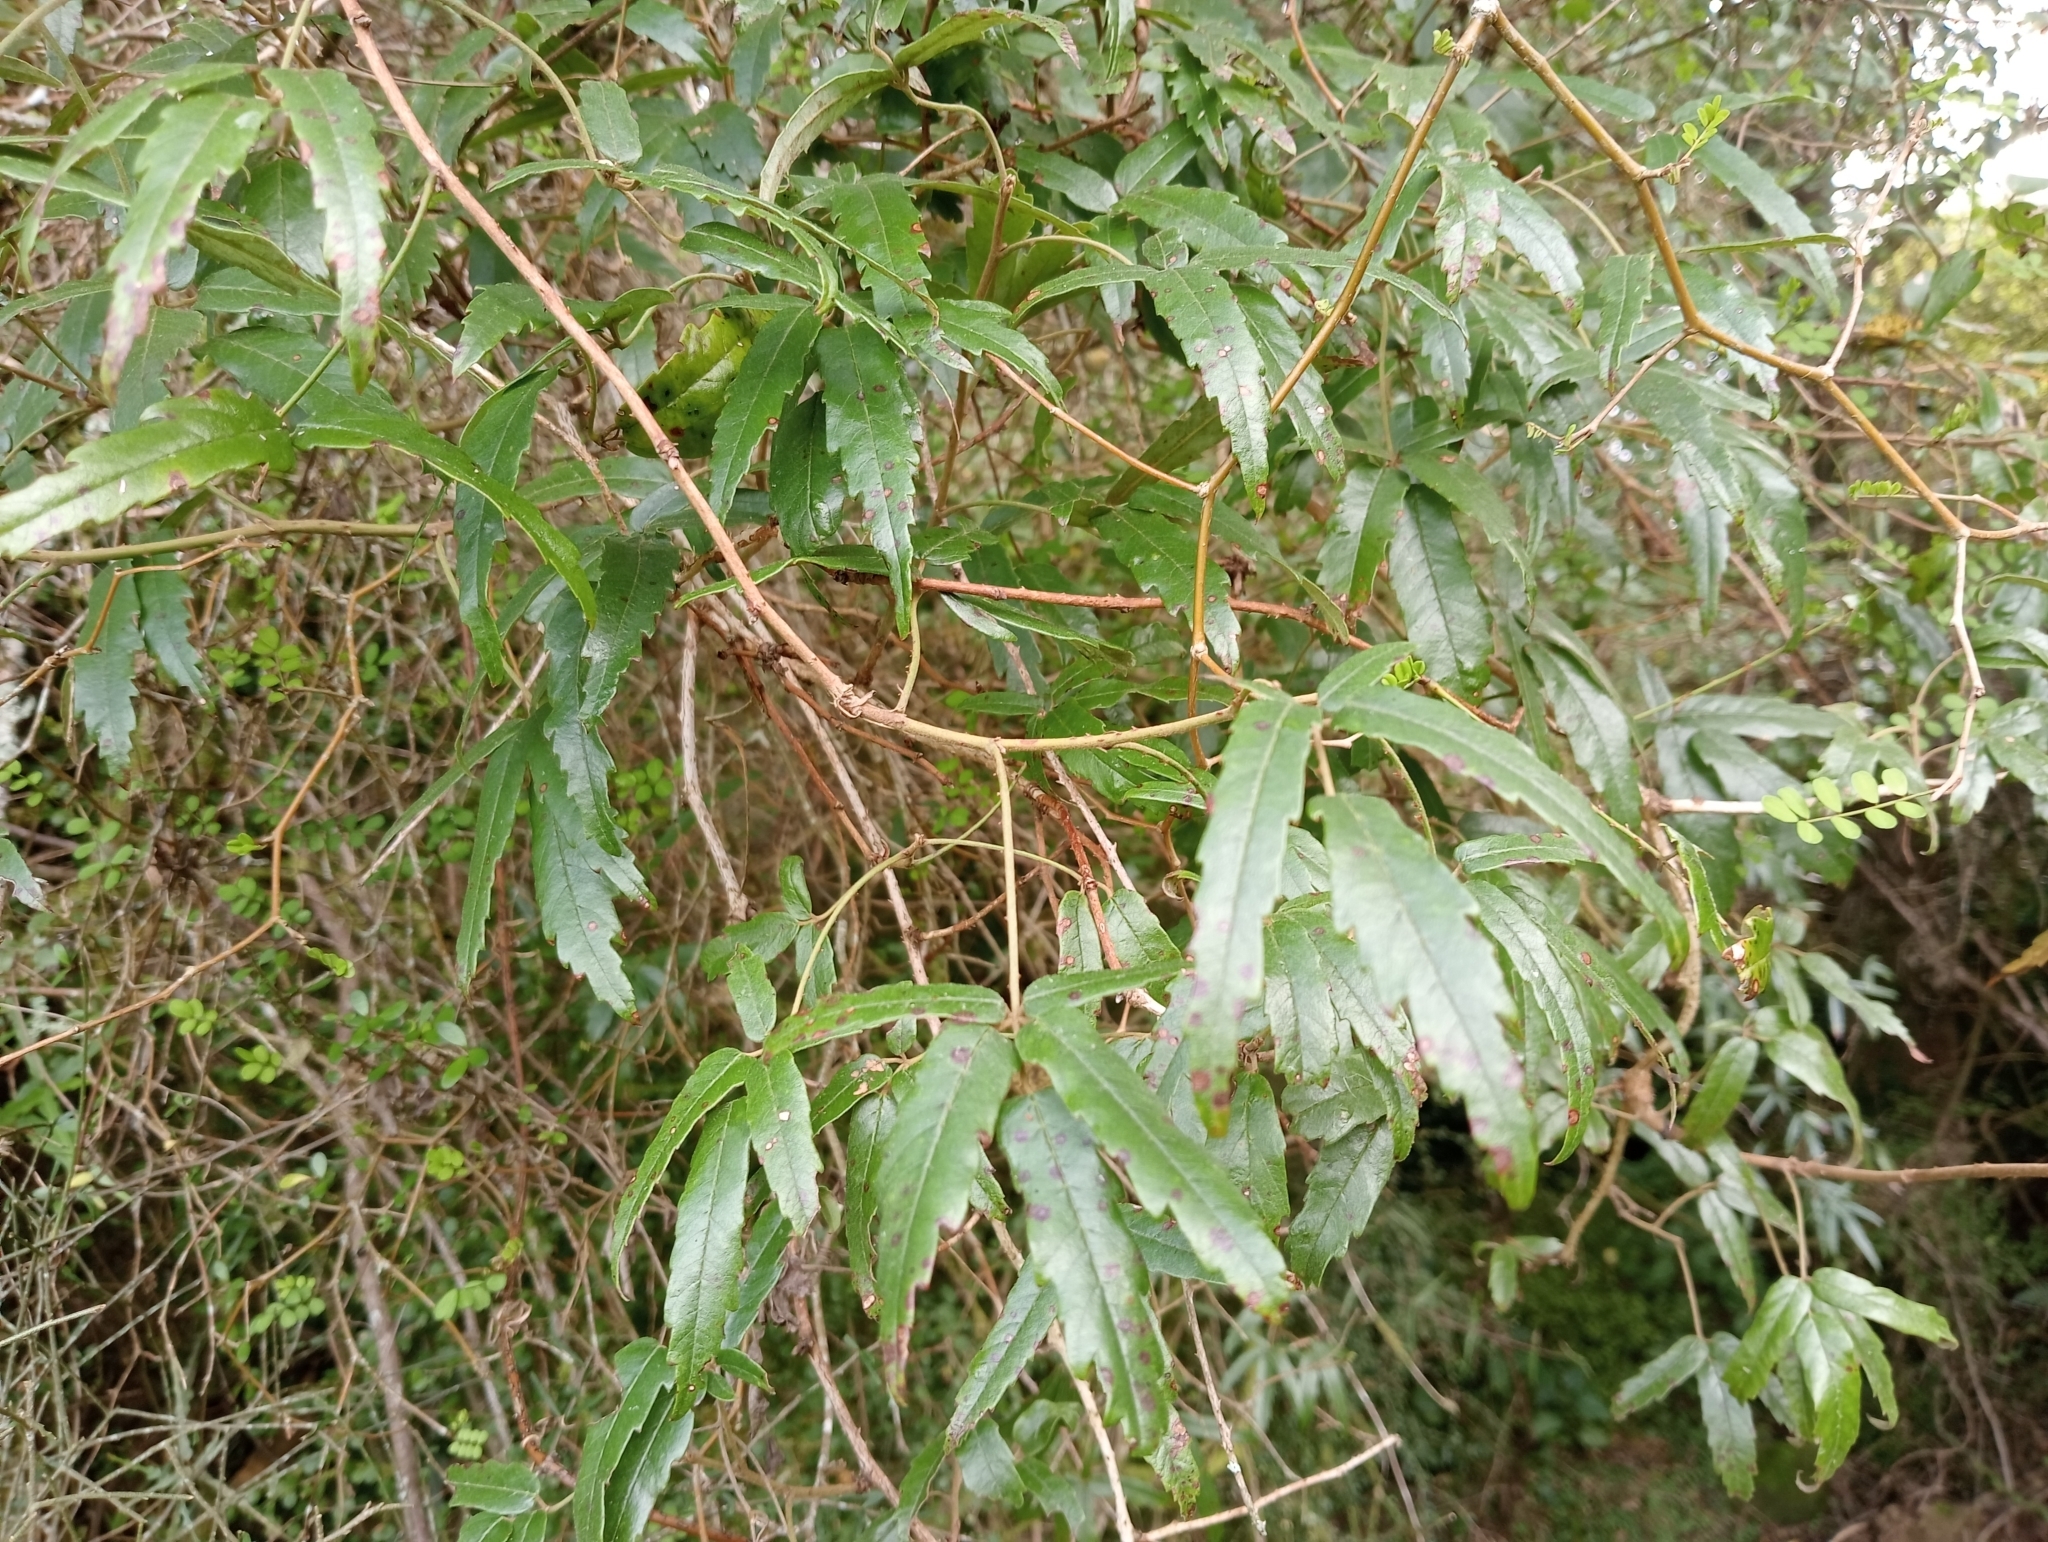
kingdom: Plantae
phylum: Tracheophyta
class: Magnoliopsida
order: Rosales
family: Rosaceae
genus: Rubus
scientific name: Rubus schmidelioides
